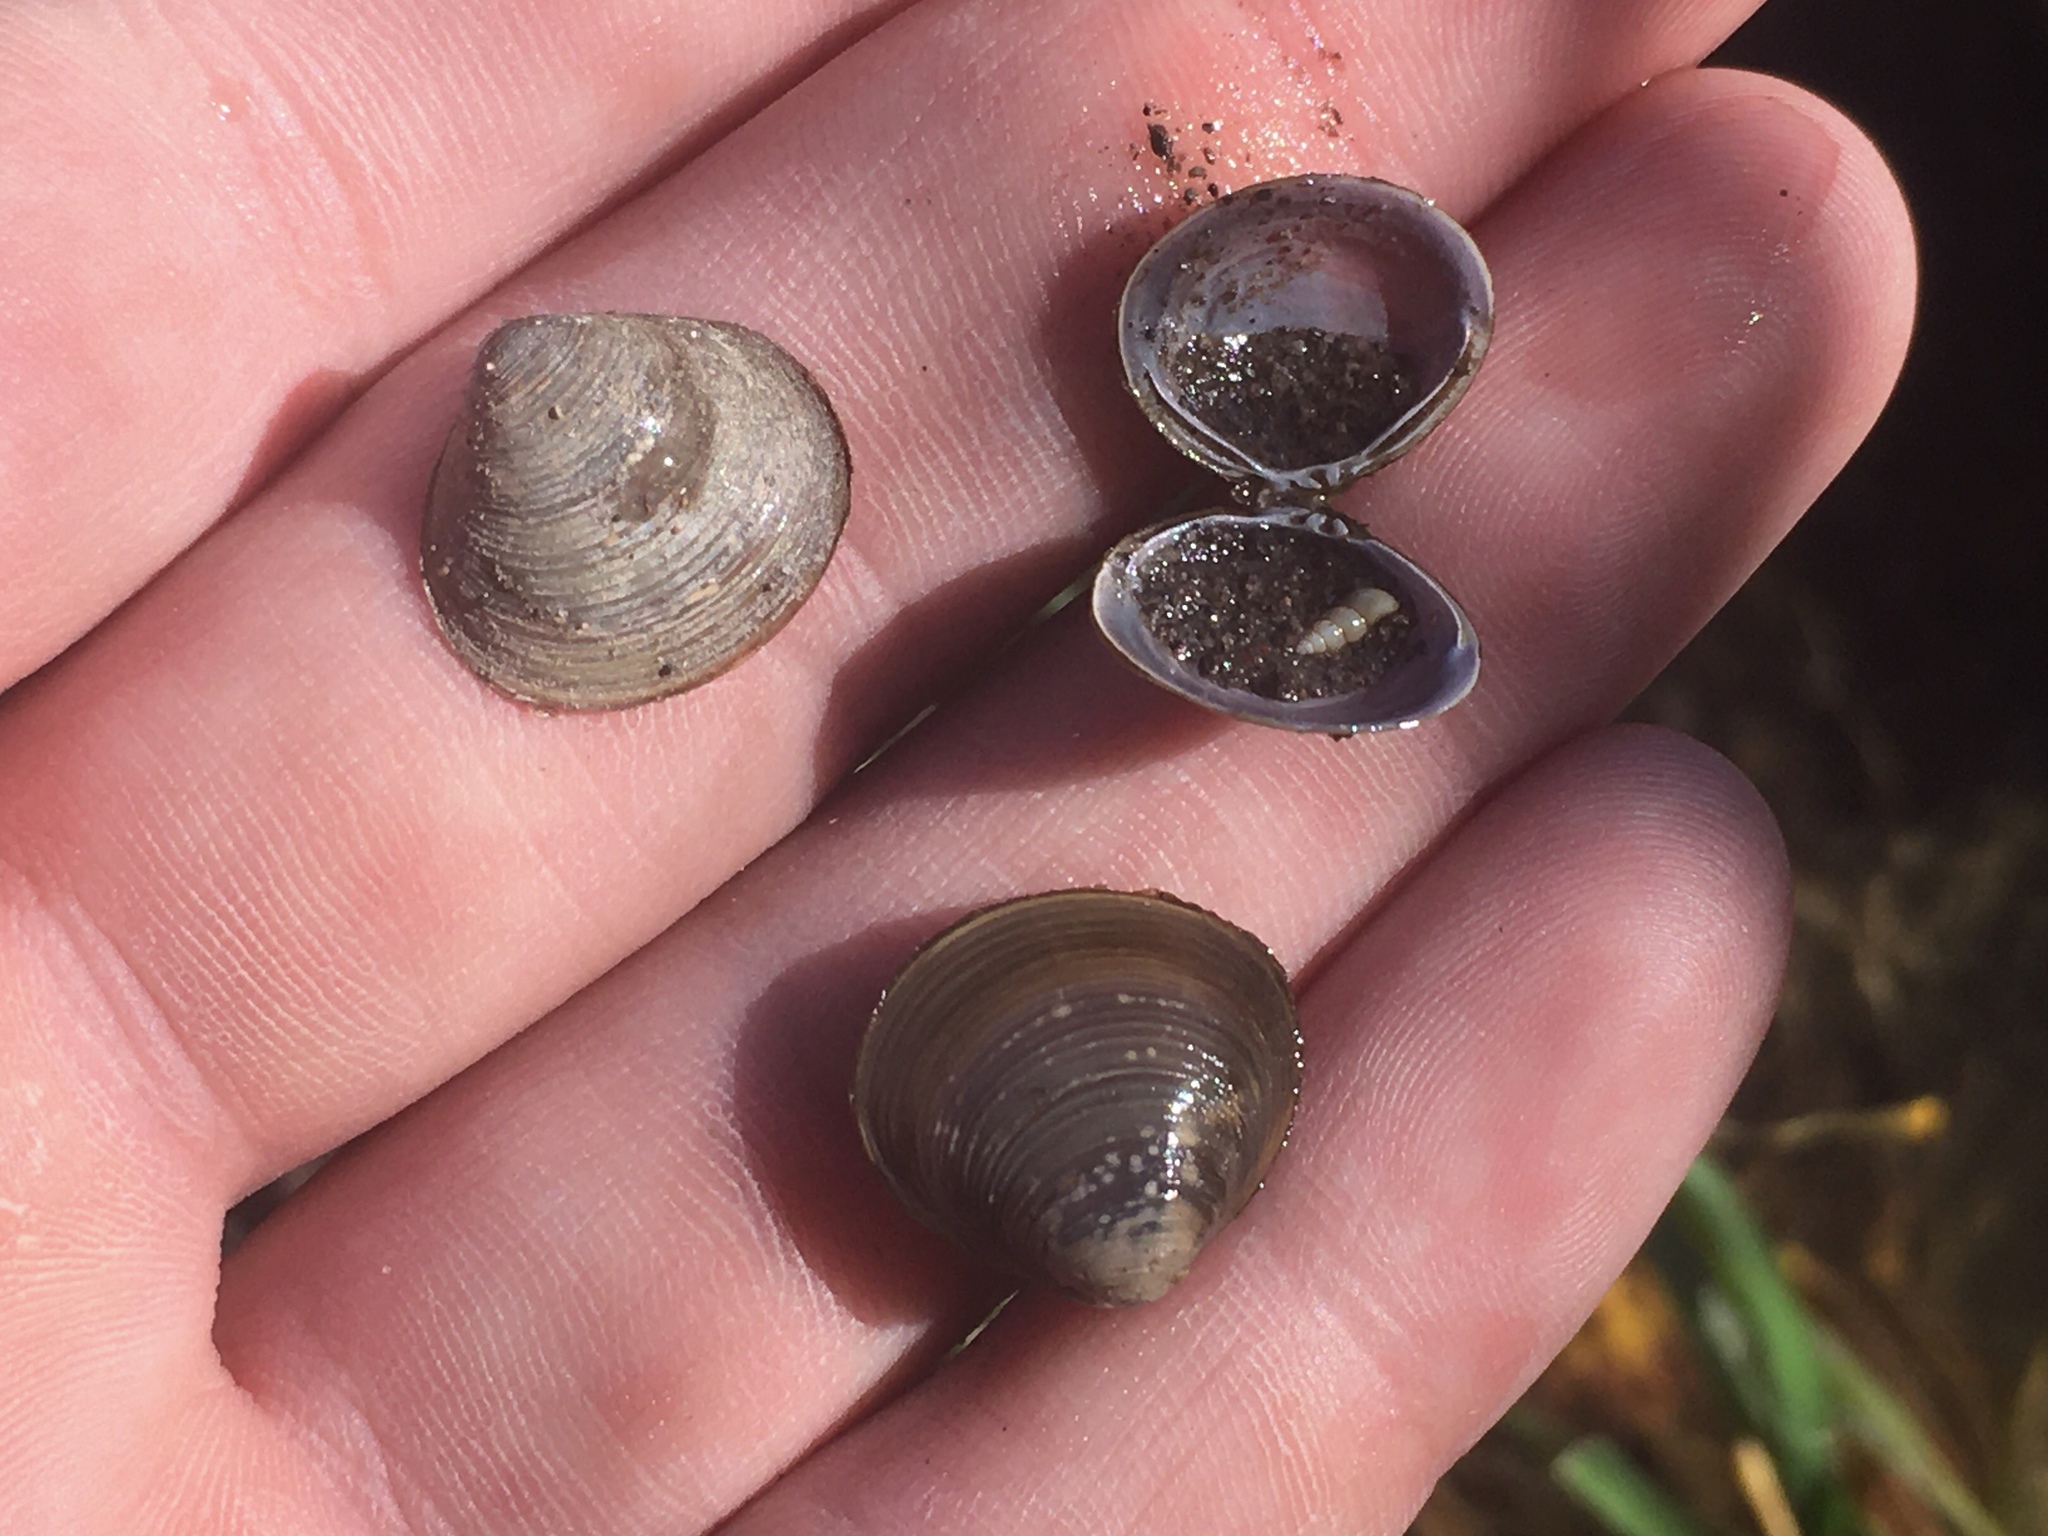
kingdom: Animalia
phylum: Mollusca
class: Bivalvia
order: Venerida
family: Cyrenidae
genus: Corbicula
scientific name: Corbicula largillierti
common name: Purple asian clam
